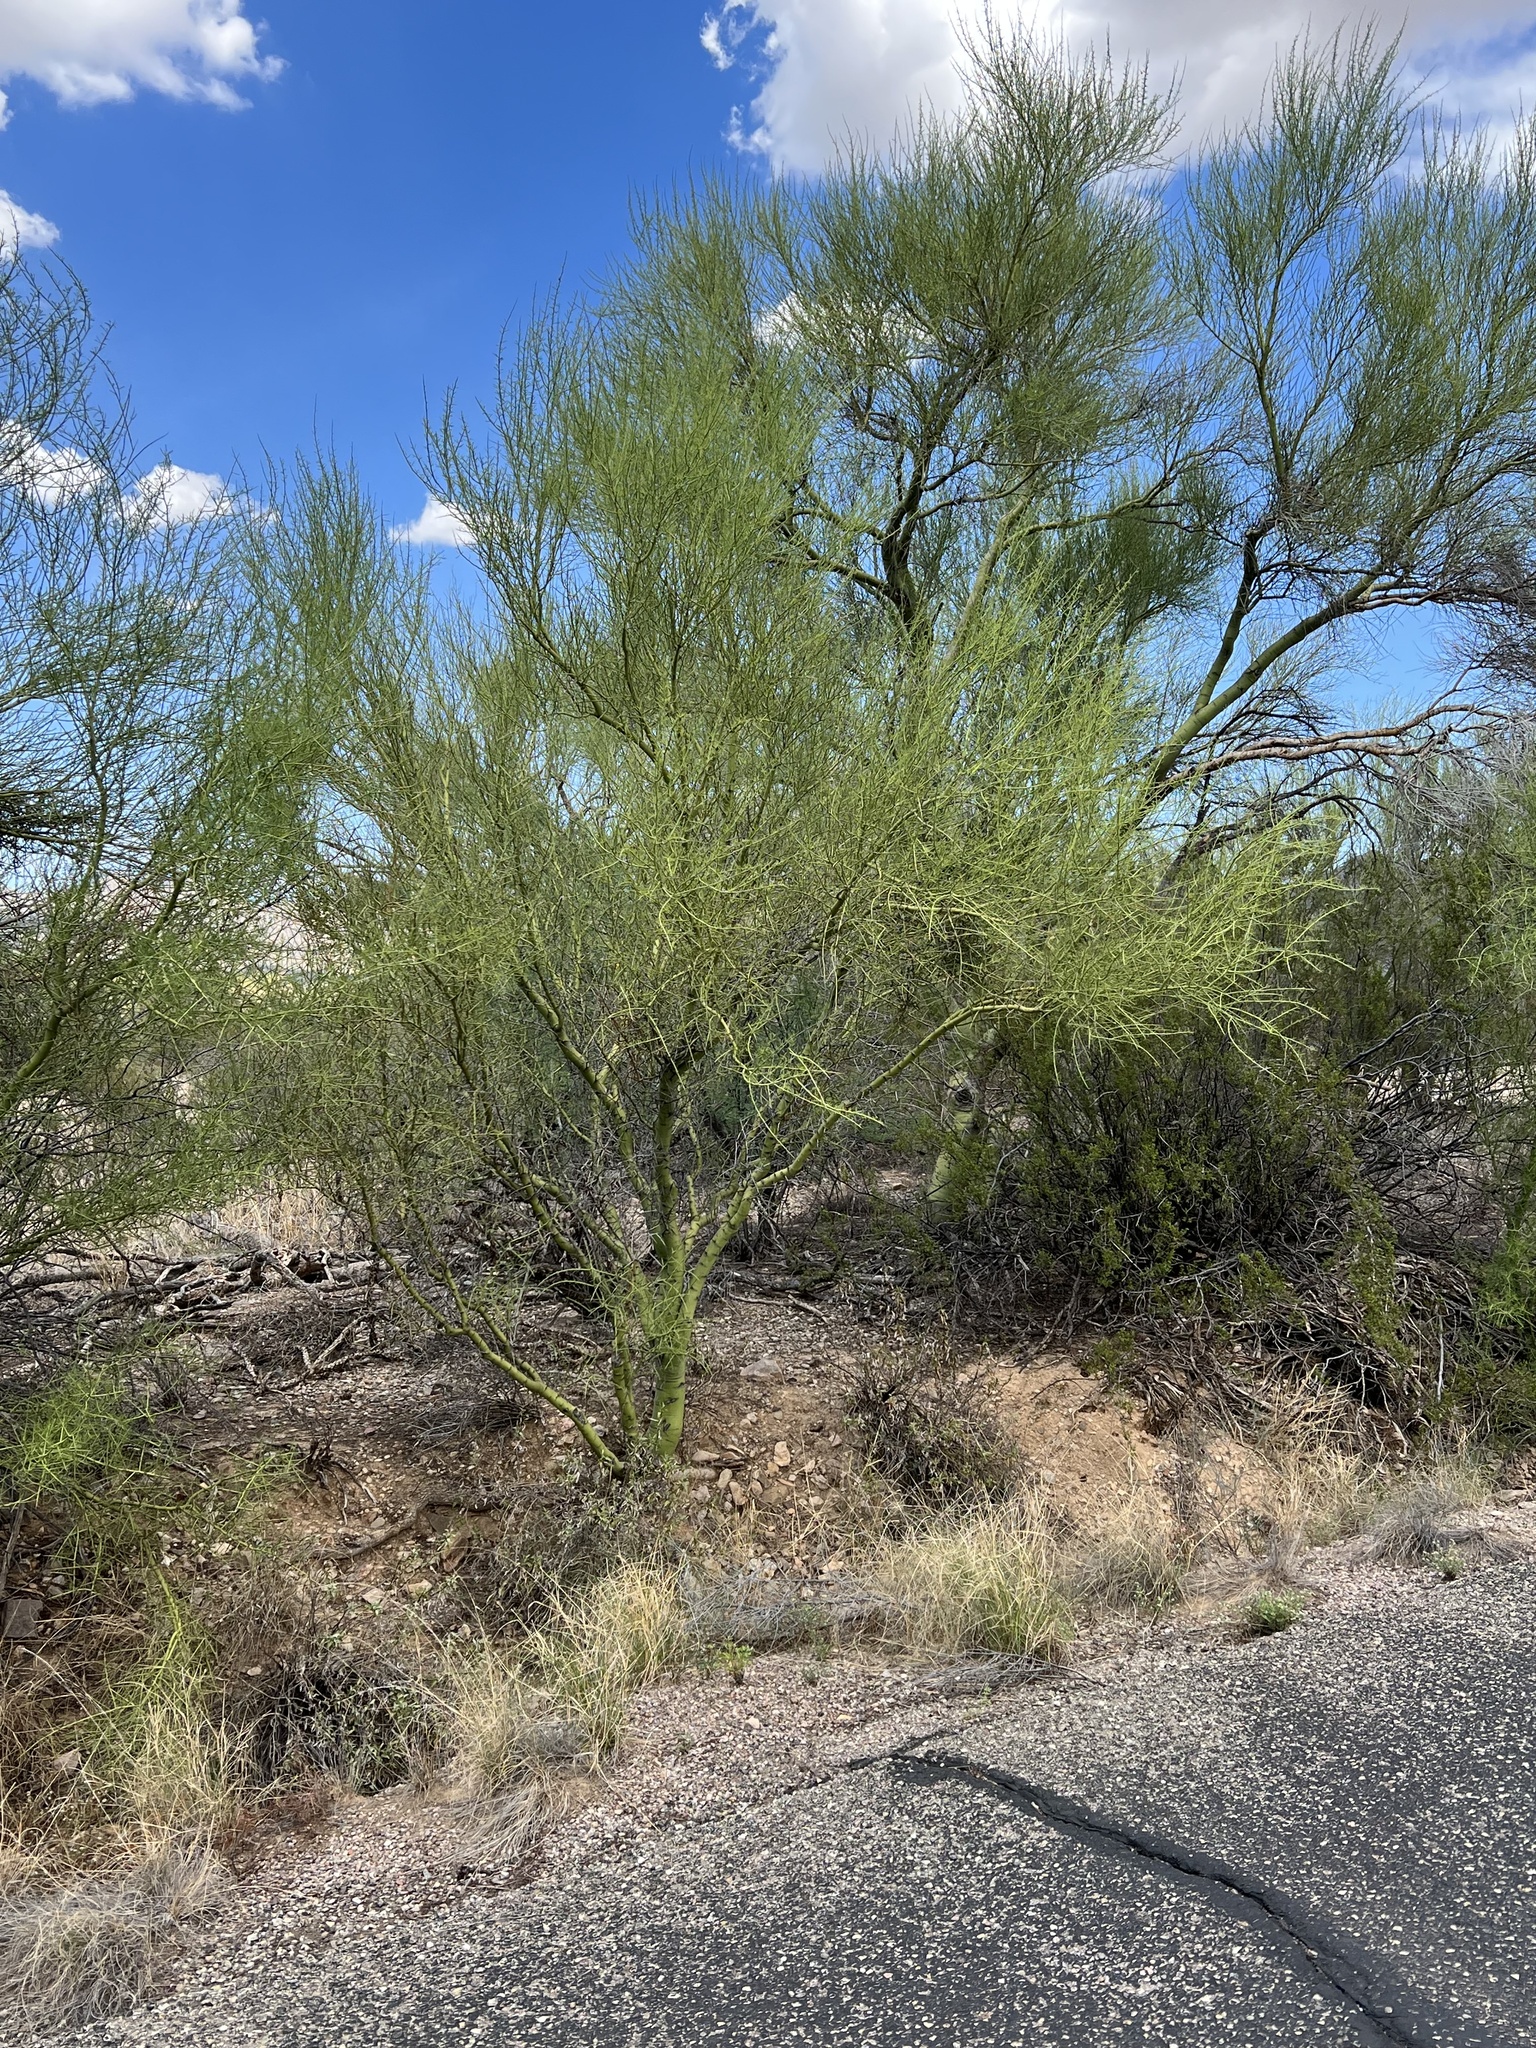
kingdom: Plantae
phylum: Tracheophyta
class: Magnoliopsida
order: Fabales
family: Fabaceae
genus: Parkinsonia
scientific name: Parkinsonia microphylla
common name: Yellow paloverde
